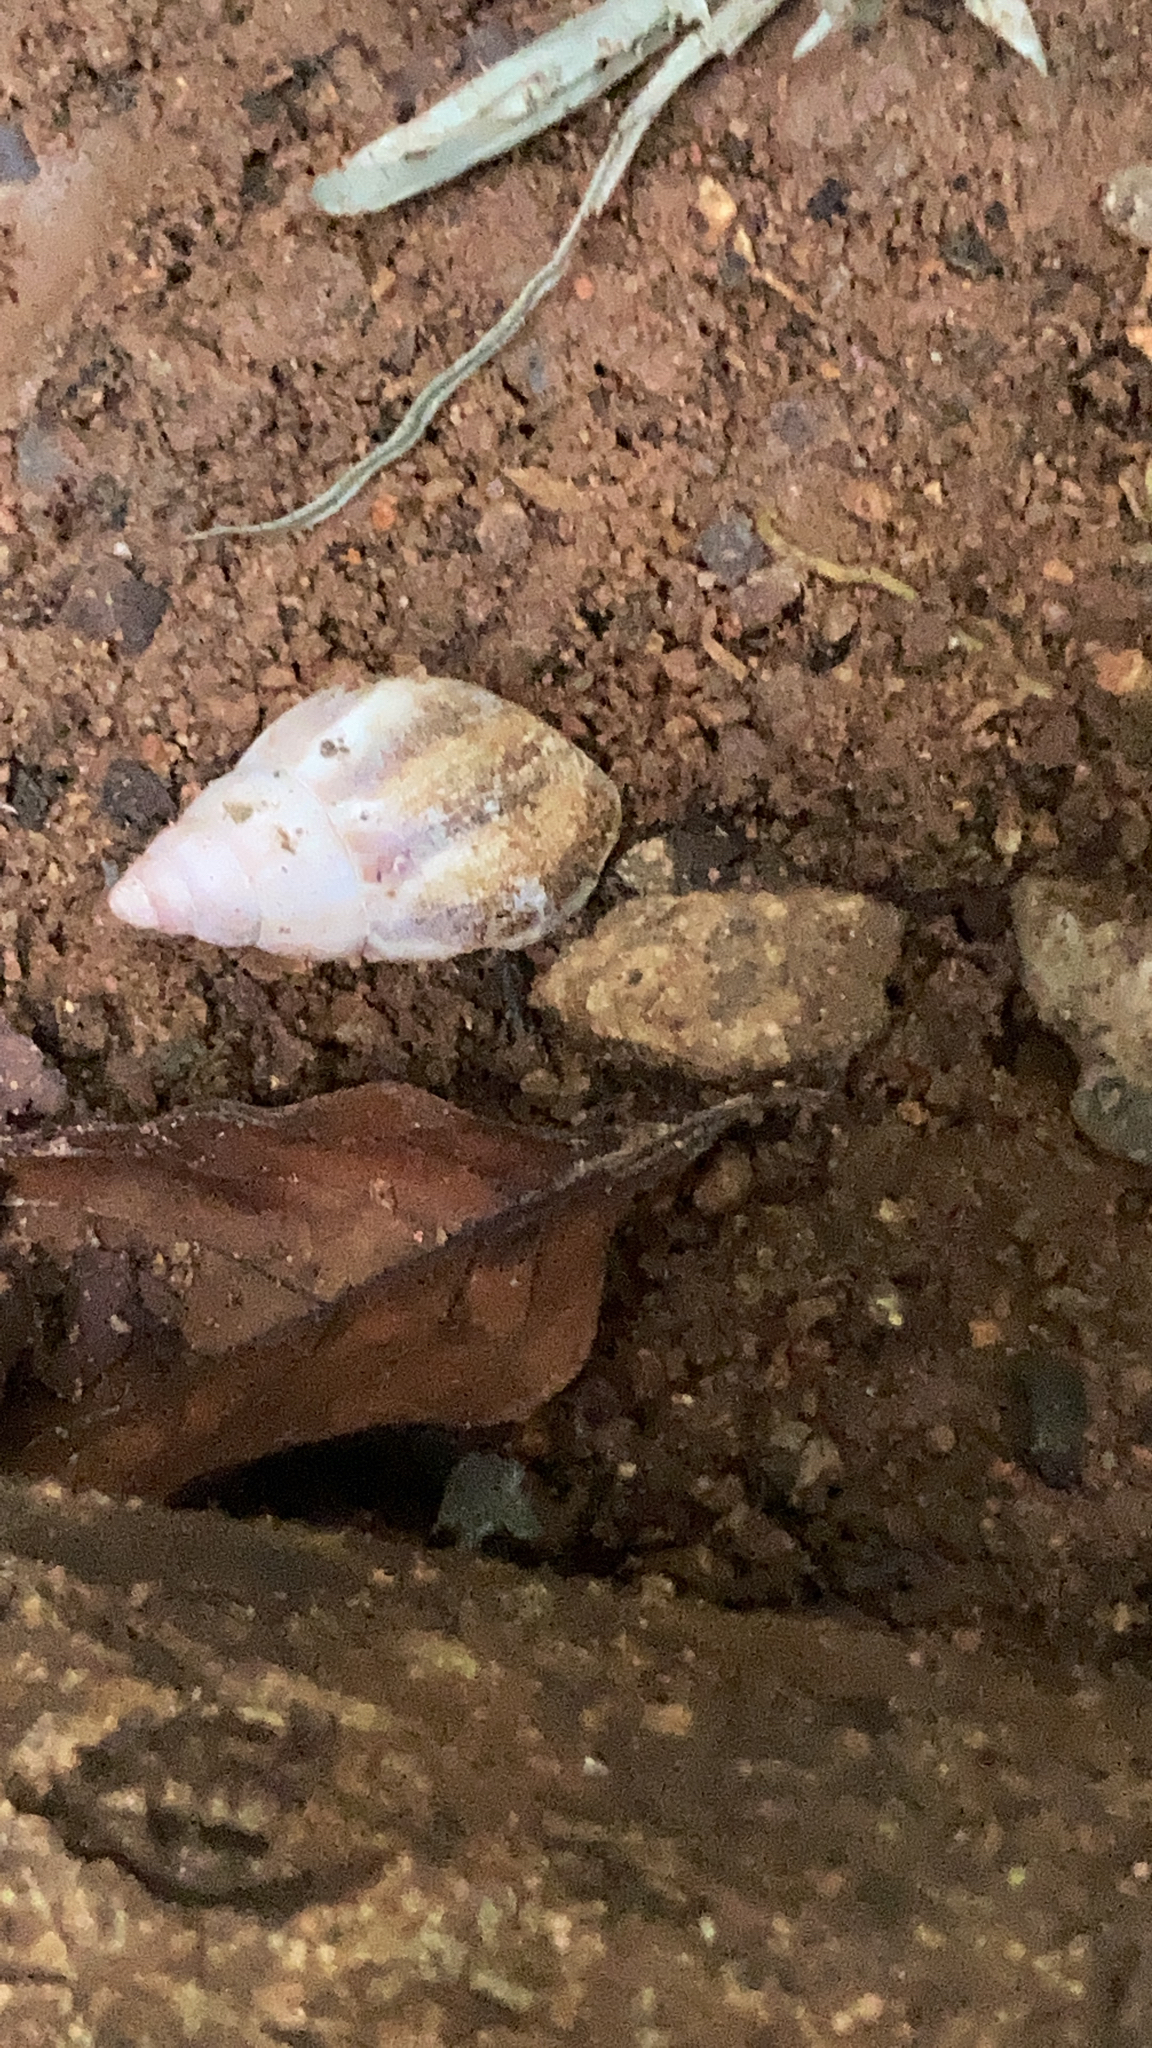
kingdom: Animalia
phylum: Mollusca
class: Gastropoda
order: Stylommatophora
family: Achatinidae
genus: Lissachatina
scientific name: Lissachatina fulica
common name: Giant african snail
